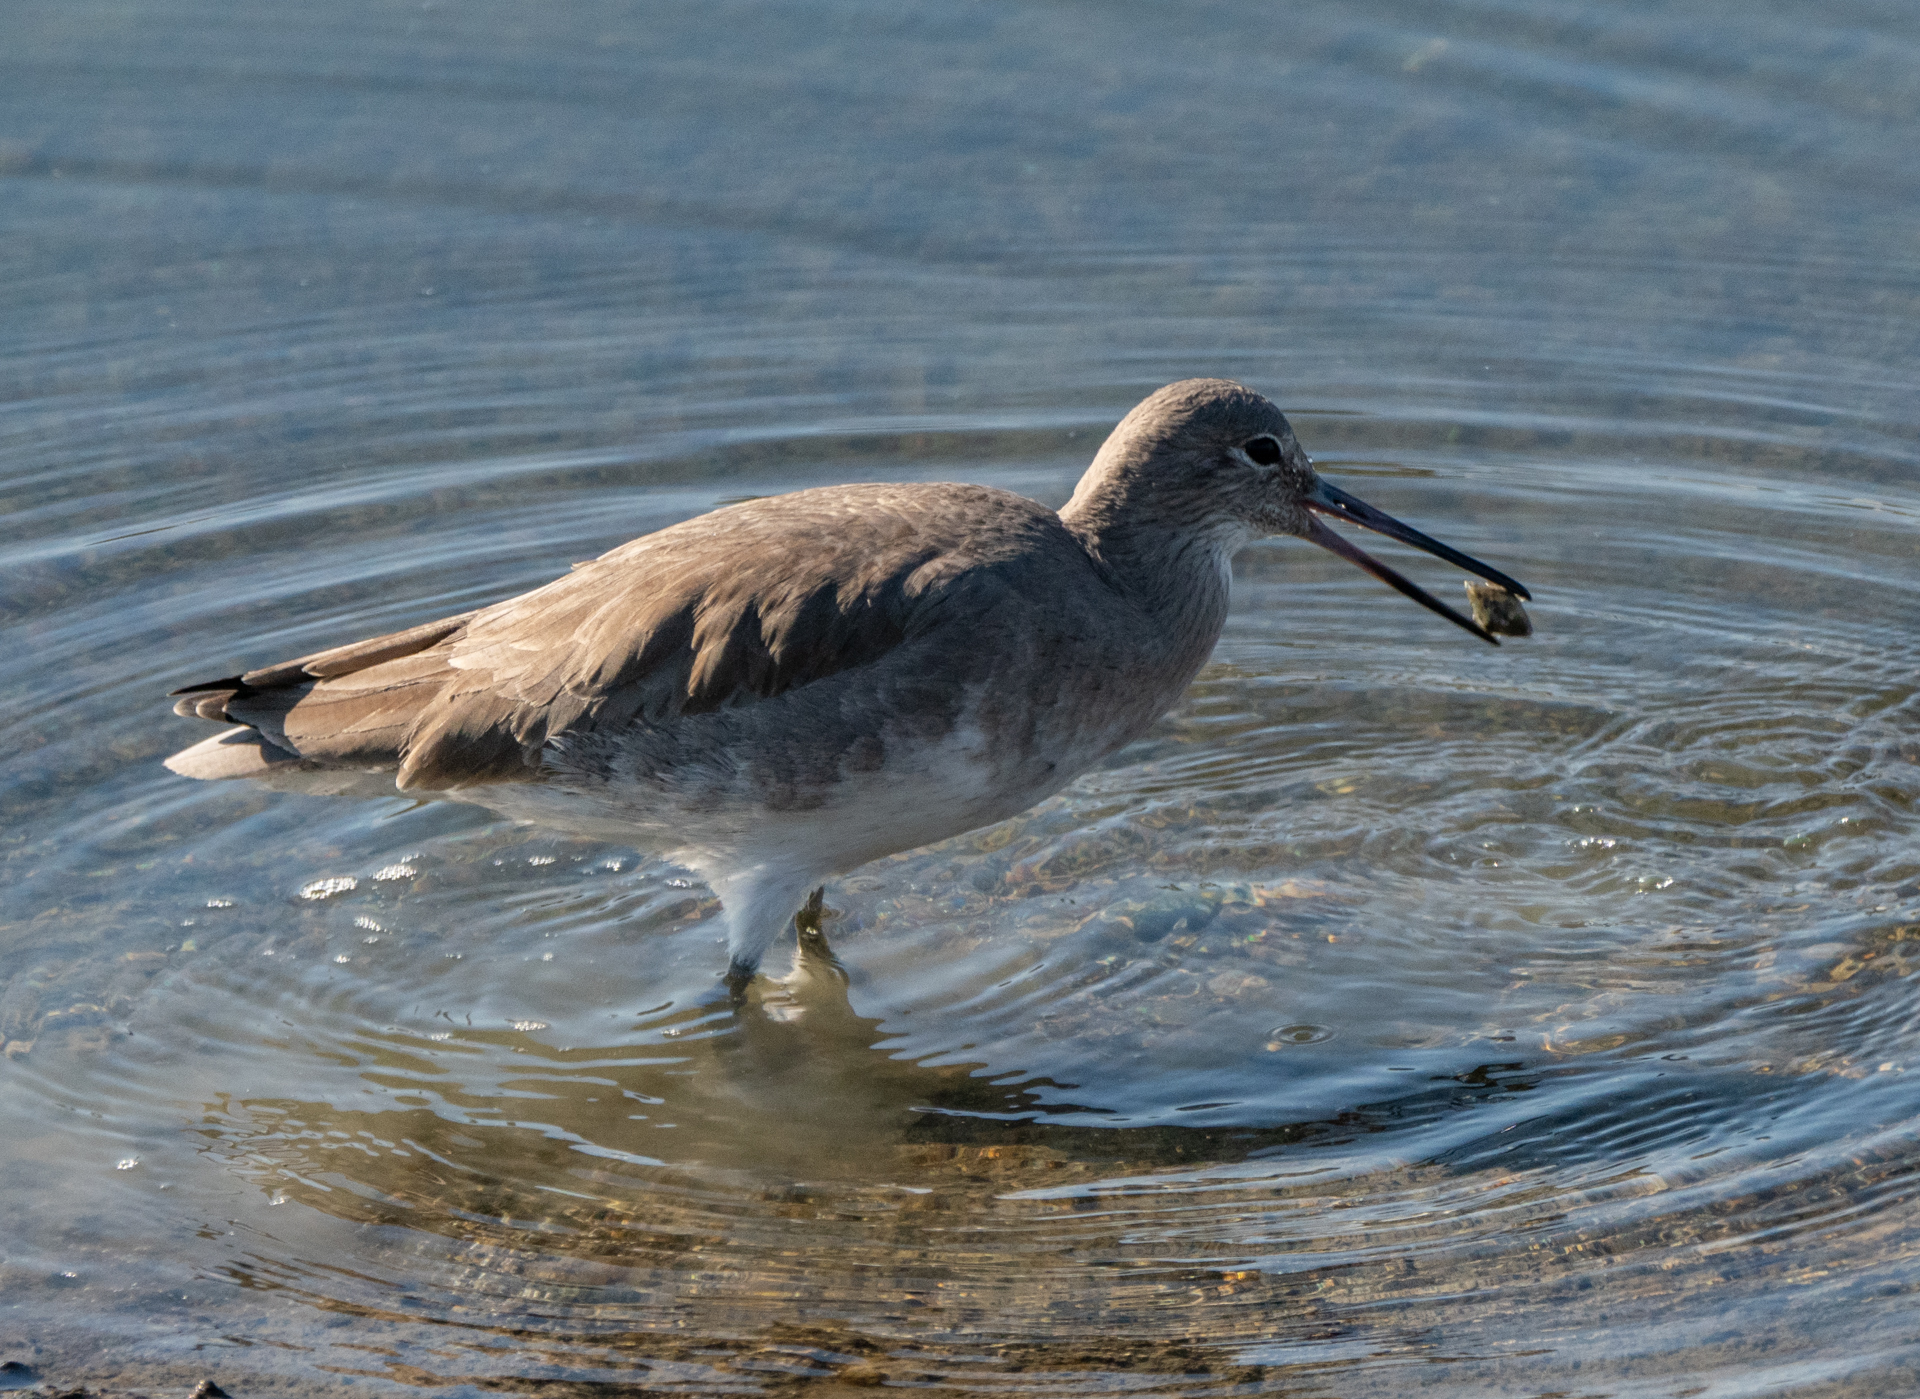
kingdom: Animalia
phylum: Chordata
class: Aves
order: Charadriiformes
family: Scolopacidae
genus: Tringa
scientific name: Tringa semipalmata
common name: Willet
